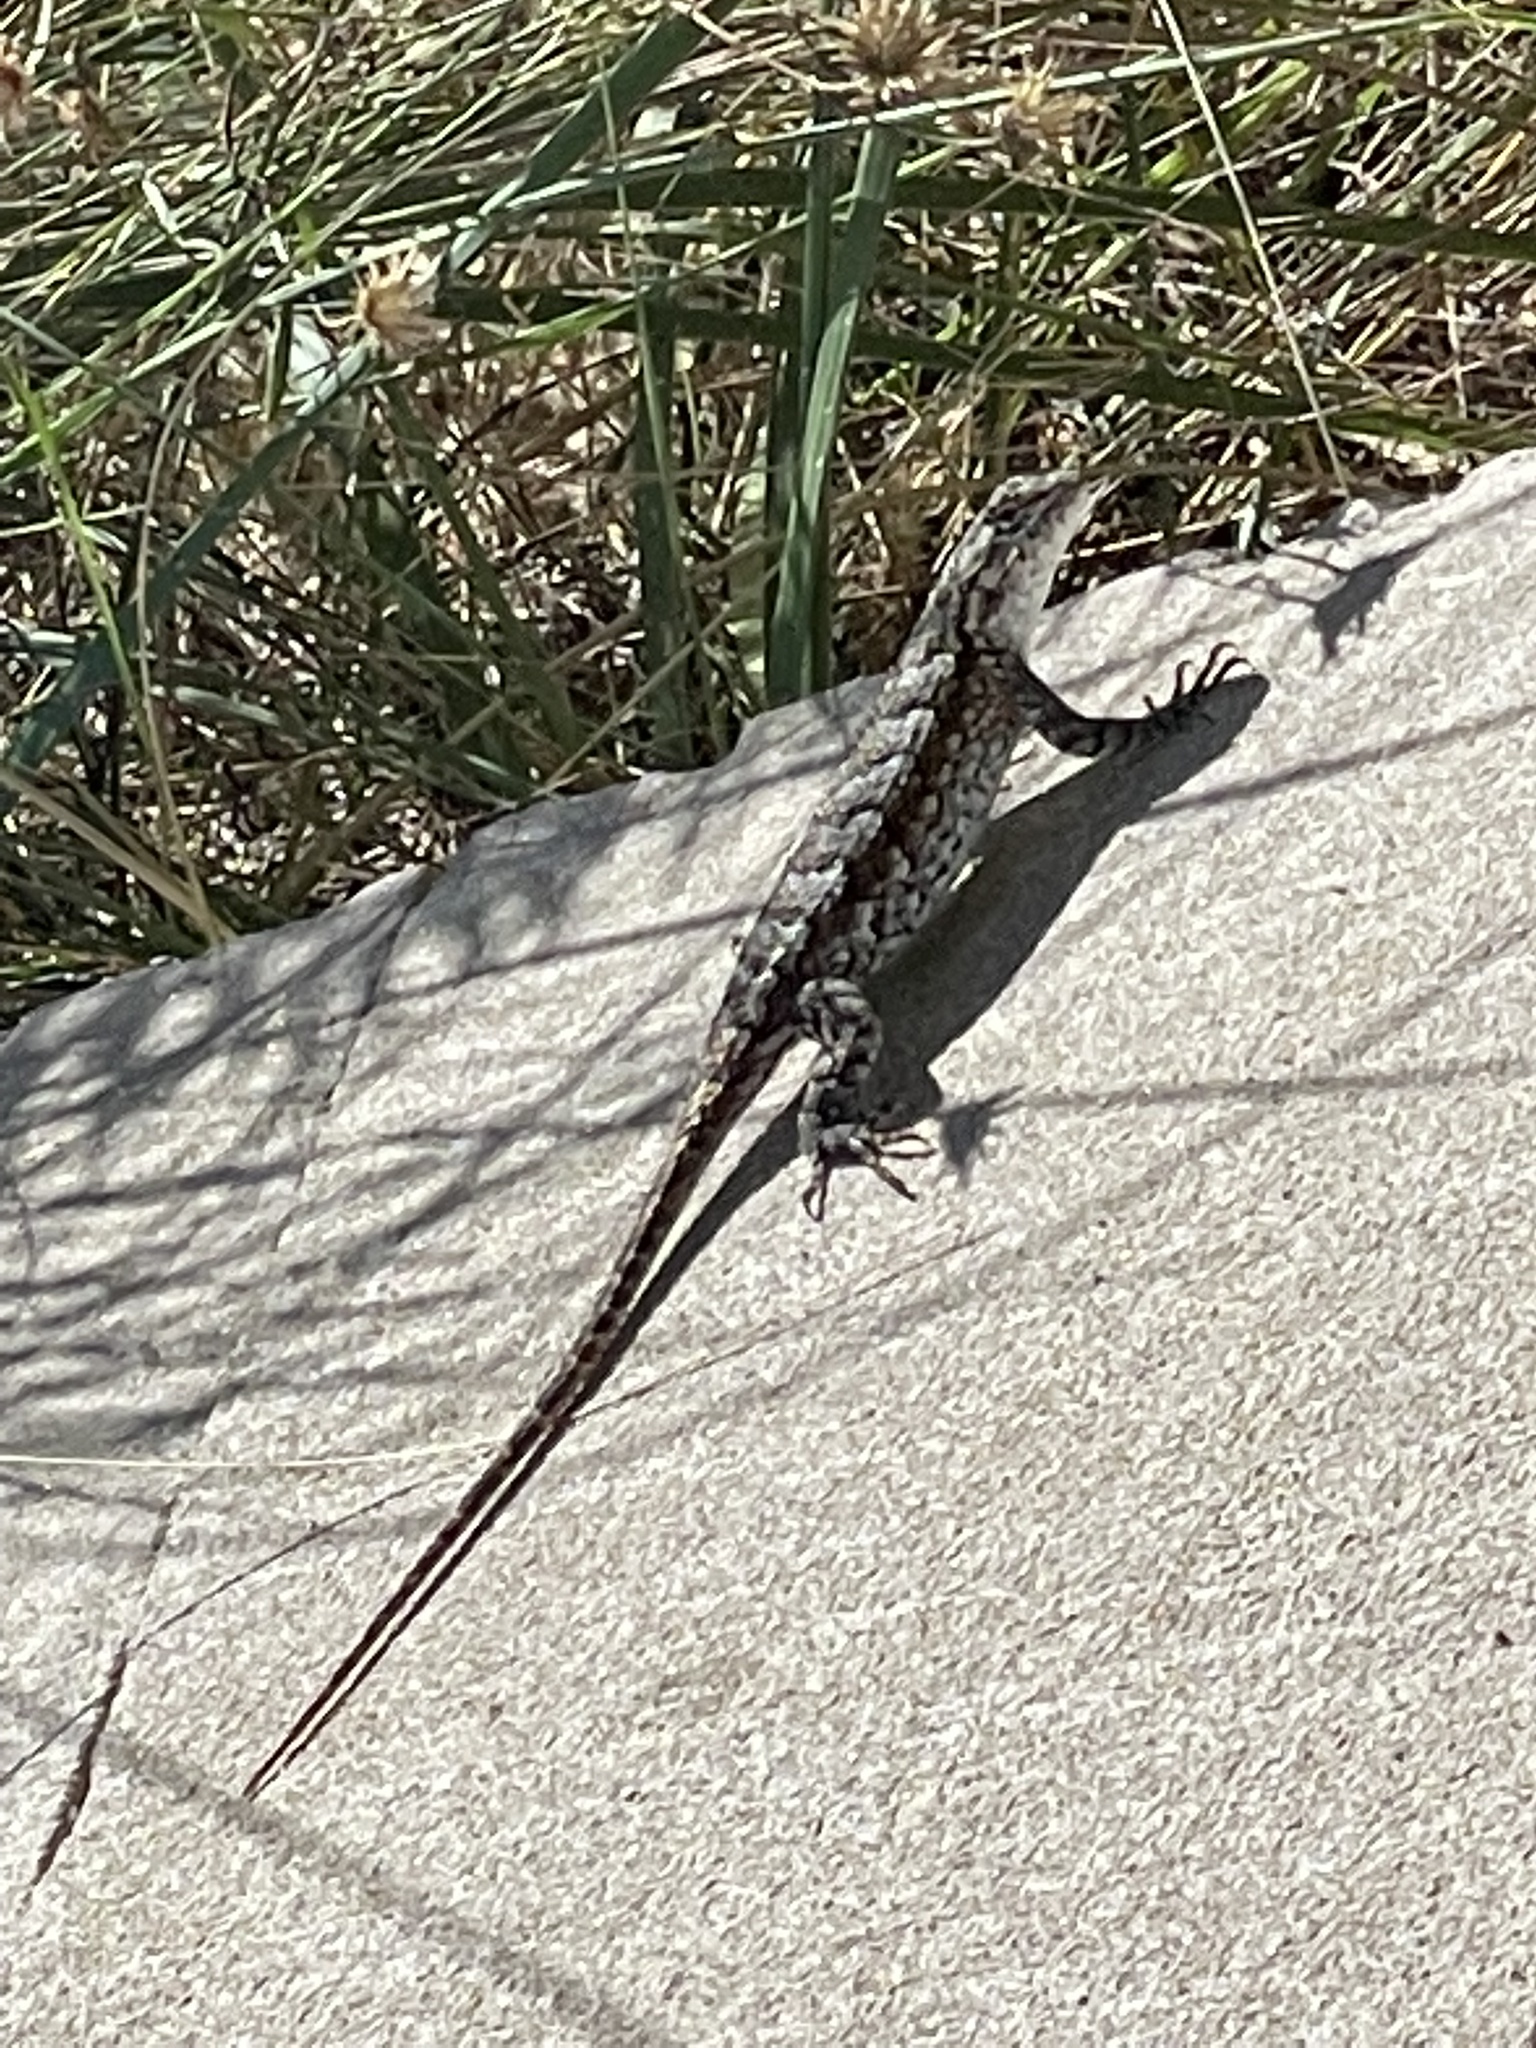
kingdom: Animalia
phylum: Chordata
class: Squamata
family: Phrynosomatidae
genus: Sceloporus
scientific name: Sceloporus undulatus
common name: Eastern fence lizard
